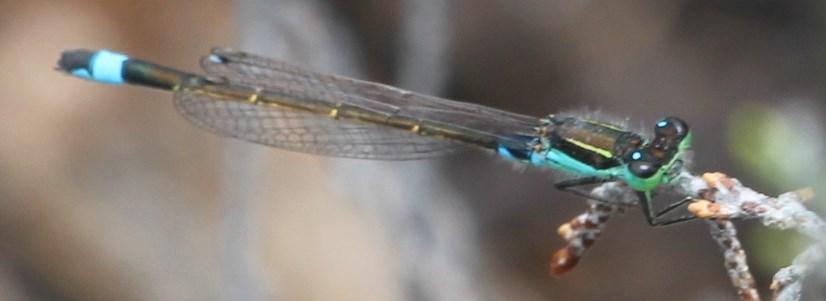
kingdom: Animalia
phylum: Arthropoda
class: Insecta
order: Odonata
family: Coenagrionidae
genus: Ischnura
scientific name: Ischnura senegalensis
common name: Tropical bluetail
